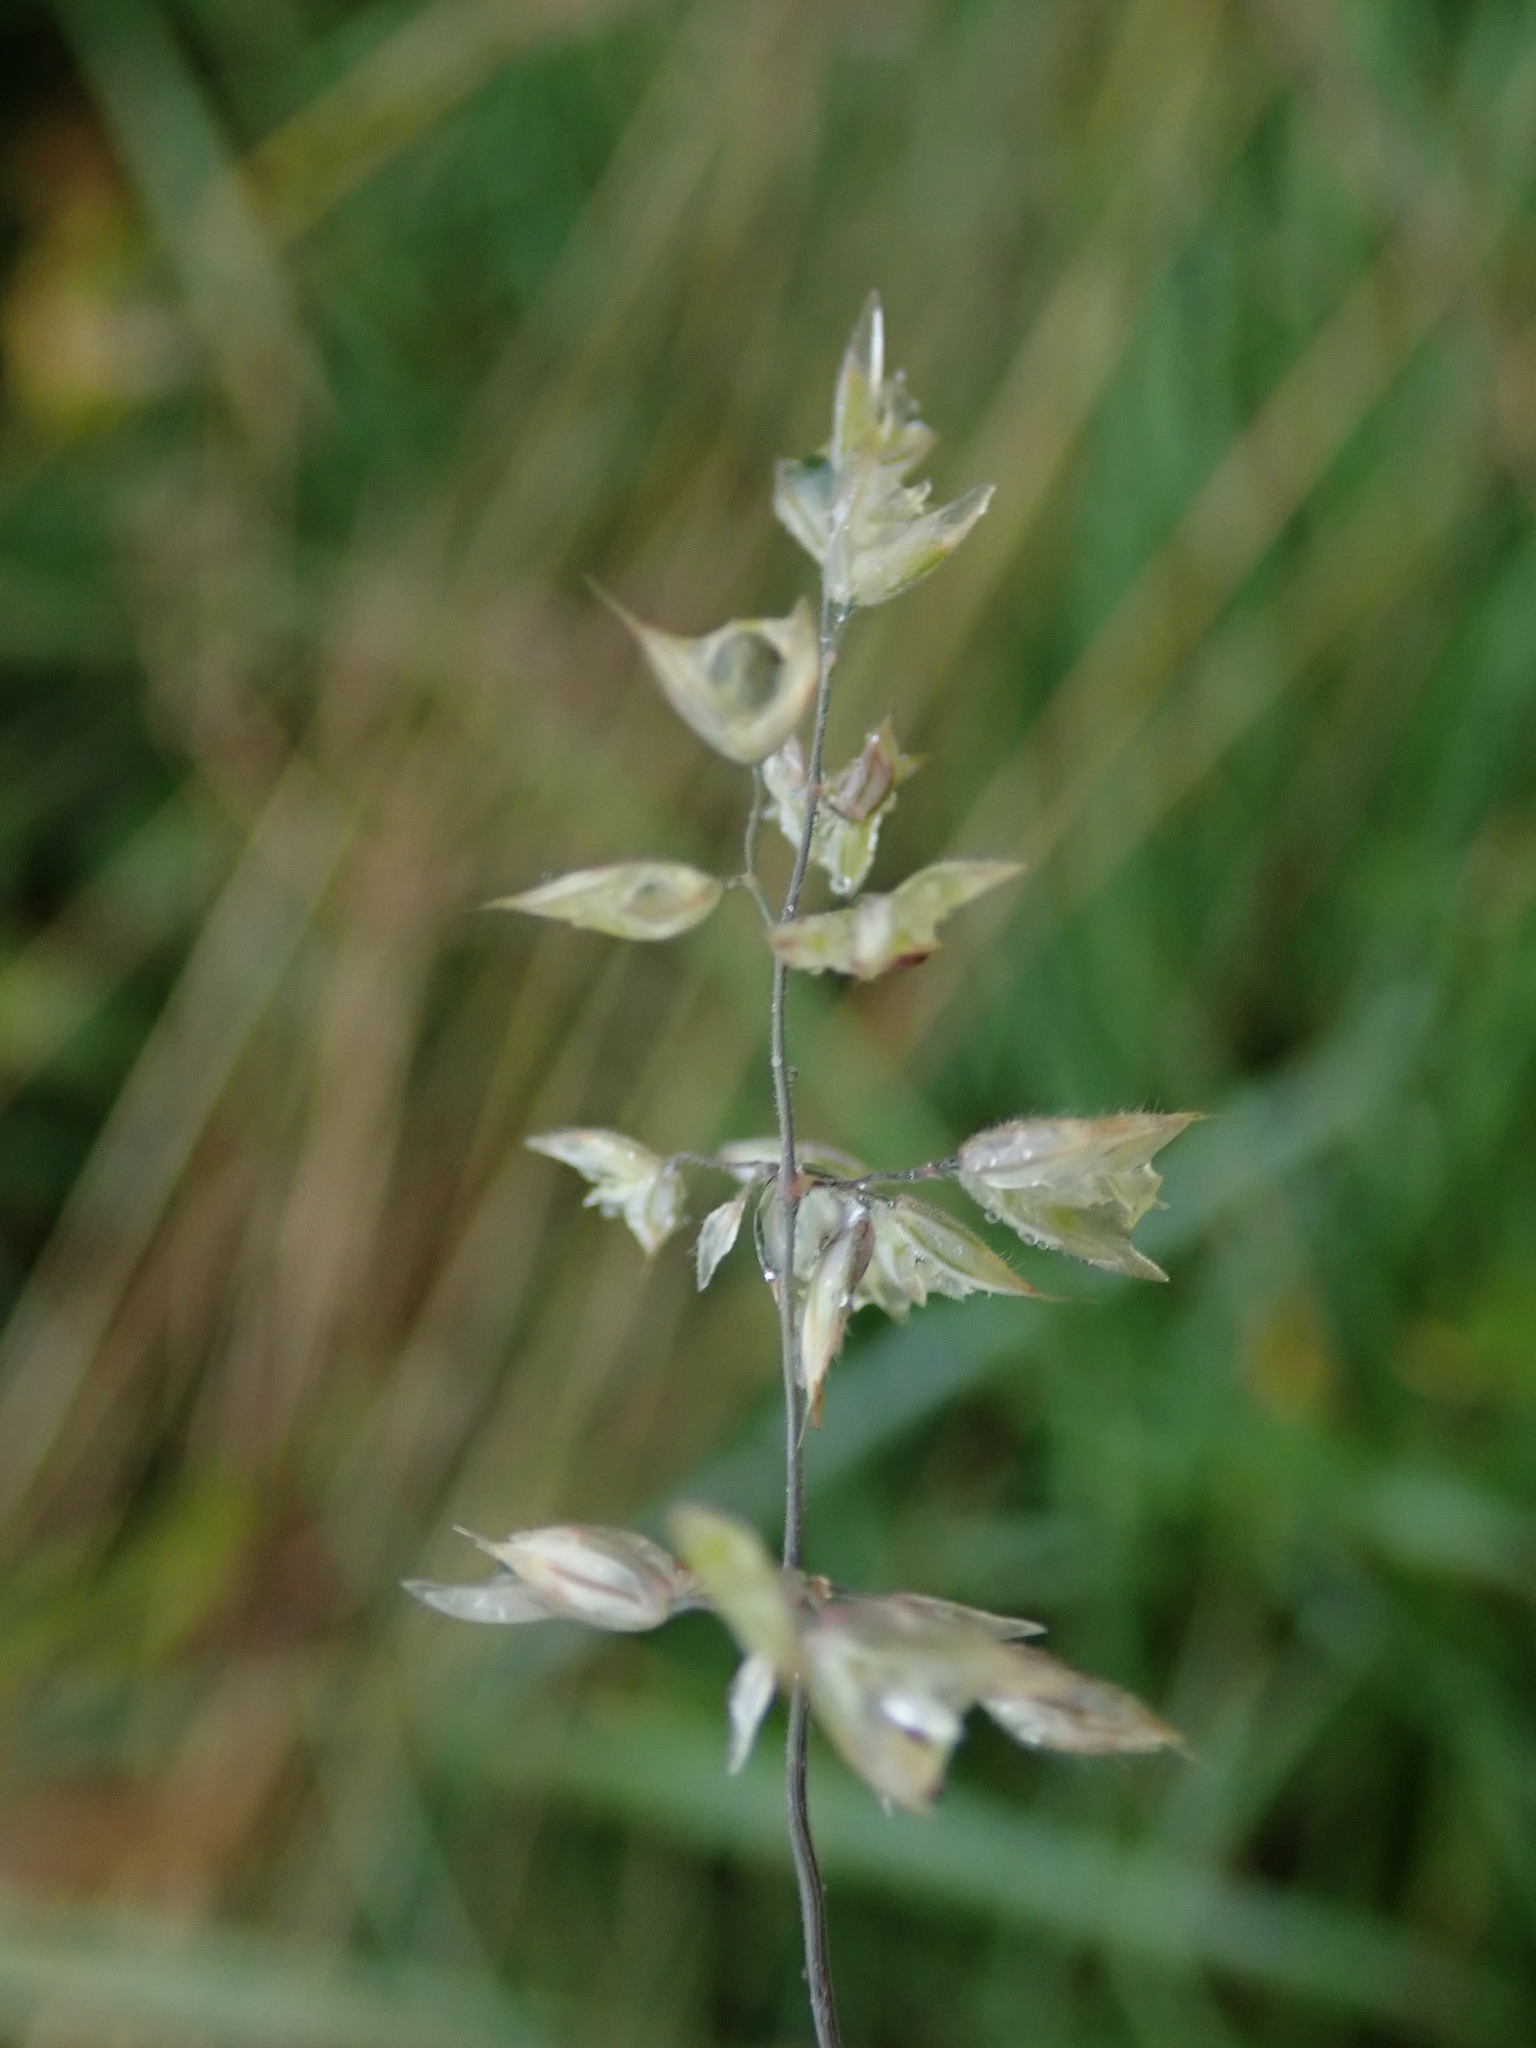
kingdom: Plantae
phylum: Tracheophyta
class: Liliopsida
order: Poales
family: Poaceae
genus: Holcus
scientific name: Holcus lanatus
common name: Yorkshire-fog
